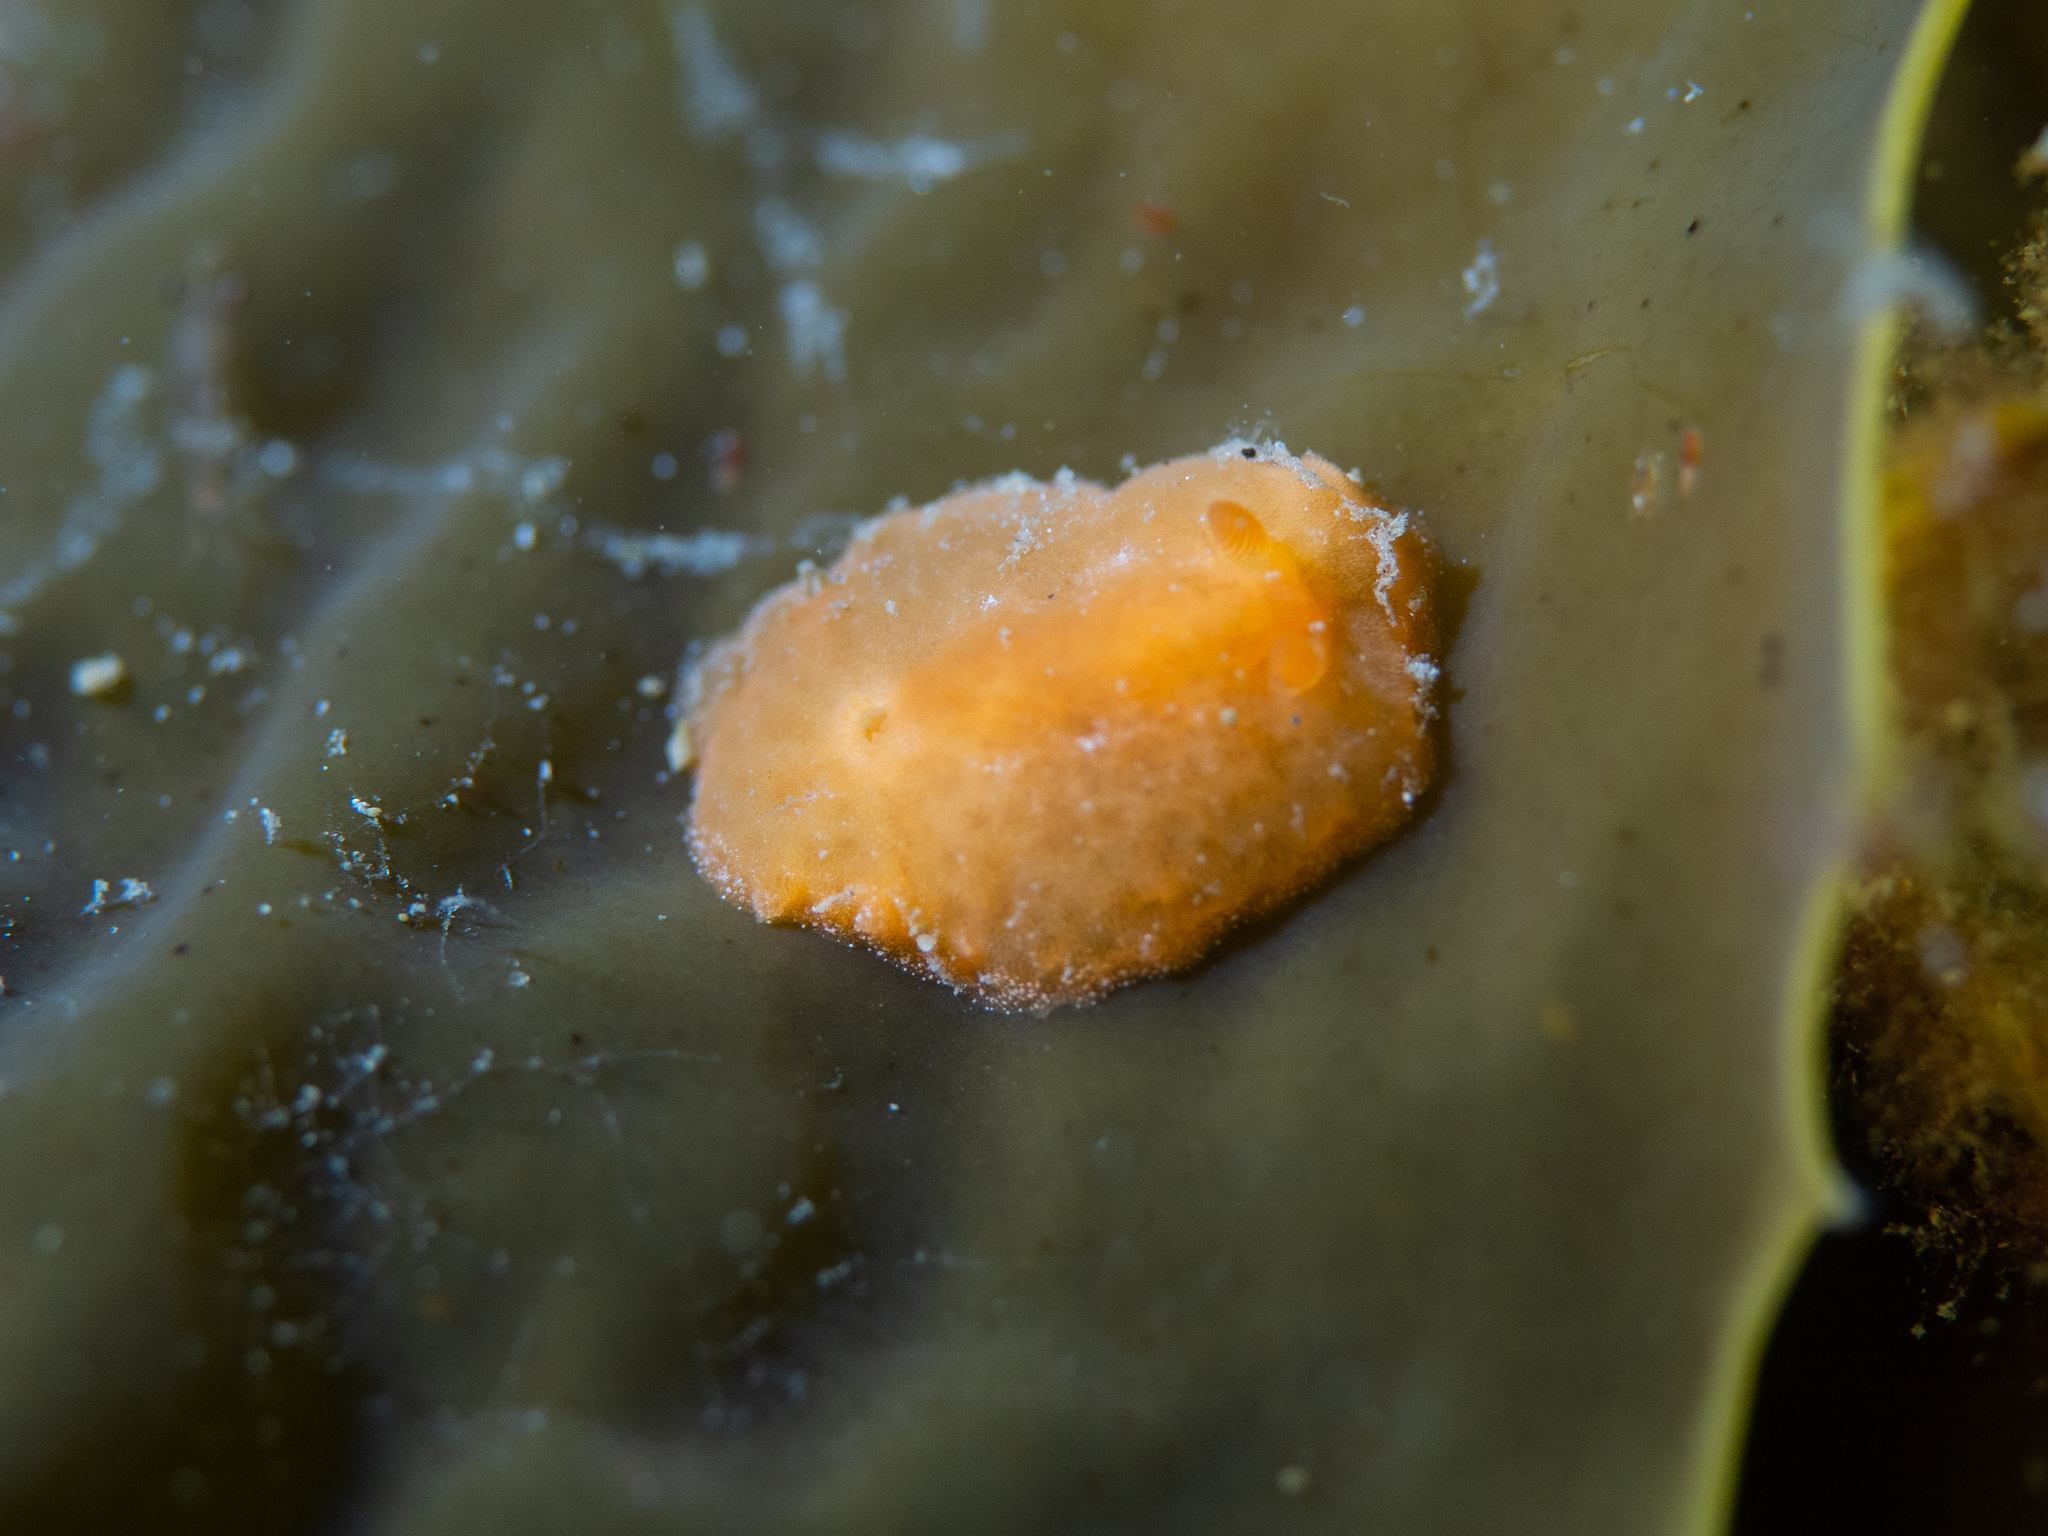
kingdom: Animalia
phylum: Mollusca
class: Gastropoda
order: Nudibranchia
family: Dendrodorididae
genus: Doriopsilla
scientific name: Doriopsilla carneola
